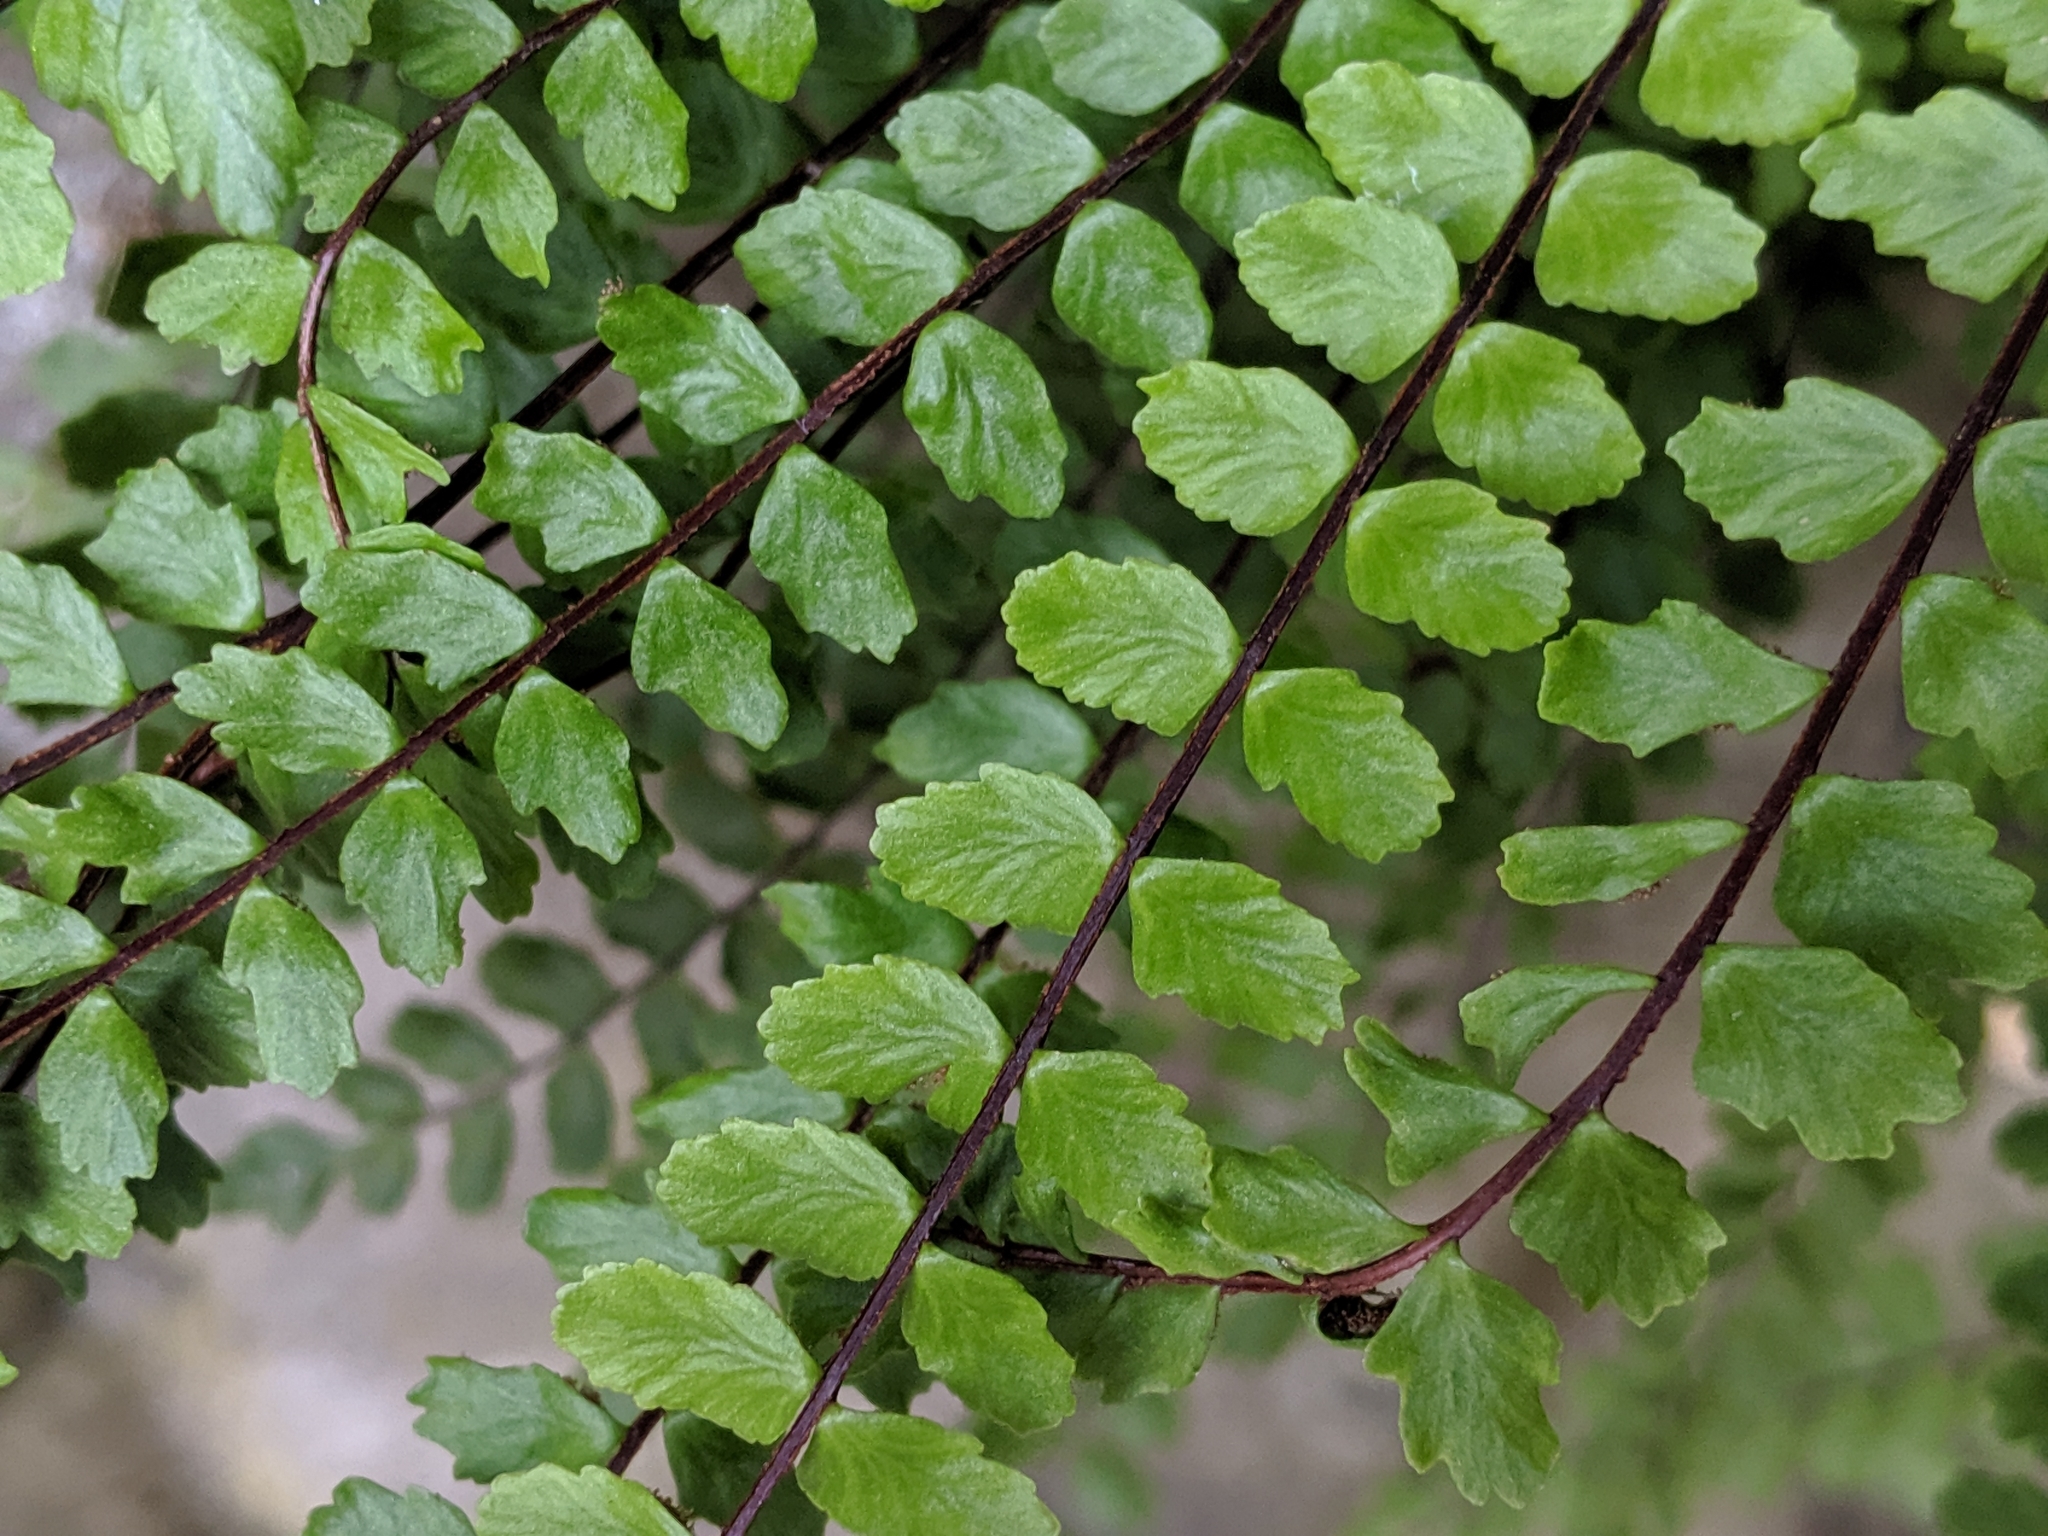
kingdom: Plantae
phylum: Tracheophyta
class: Polypodiopsida
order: Polypodiales
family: Aspleniaceae
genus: Asplenium
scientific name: Asplenium trichomanes
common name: Maidenhair spleenwort
